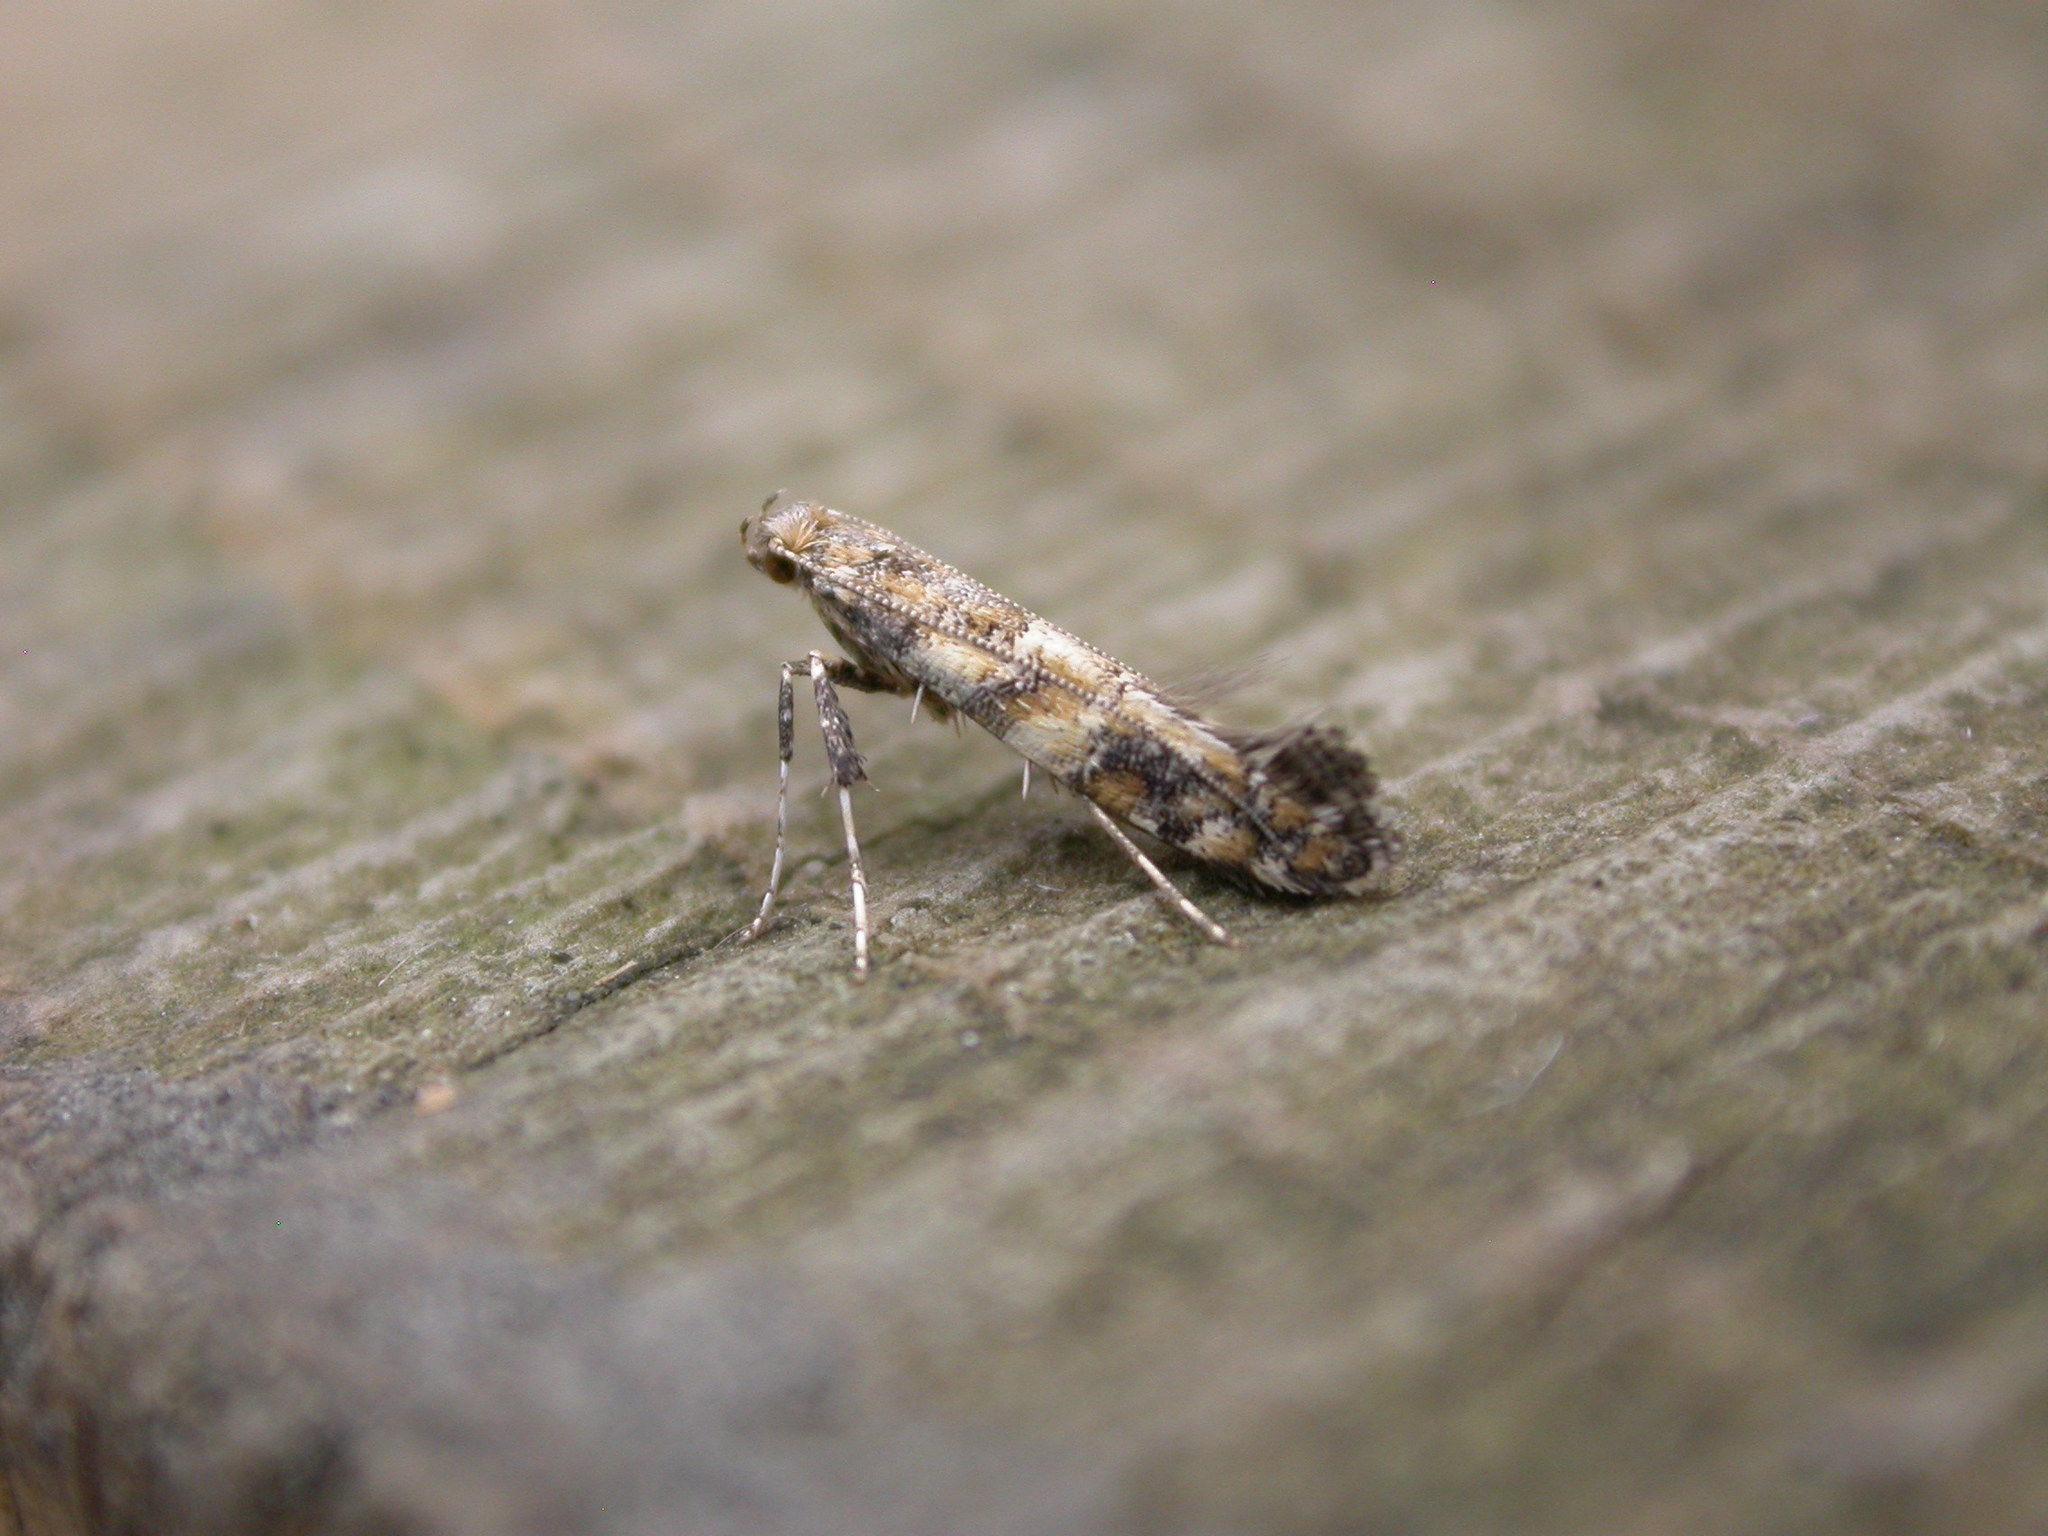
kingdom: Animalia
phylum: Arthropoda
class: Insecta
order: Lepidoptera
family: Gracillariidae
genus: Gracillaria
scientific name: Gracillaria syringella
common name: Common slender
